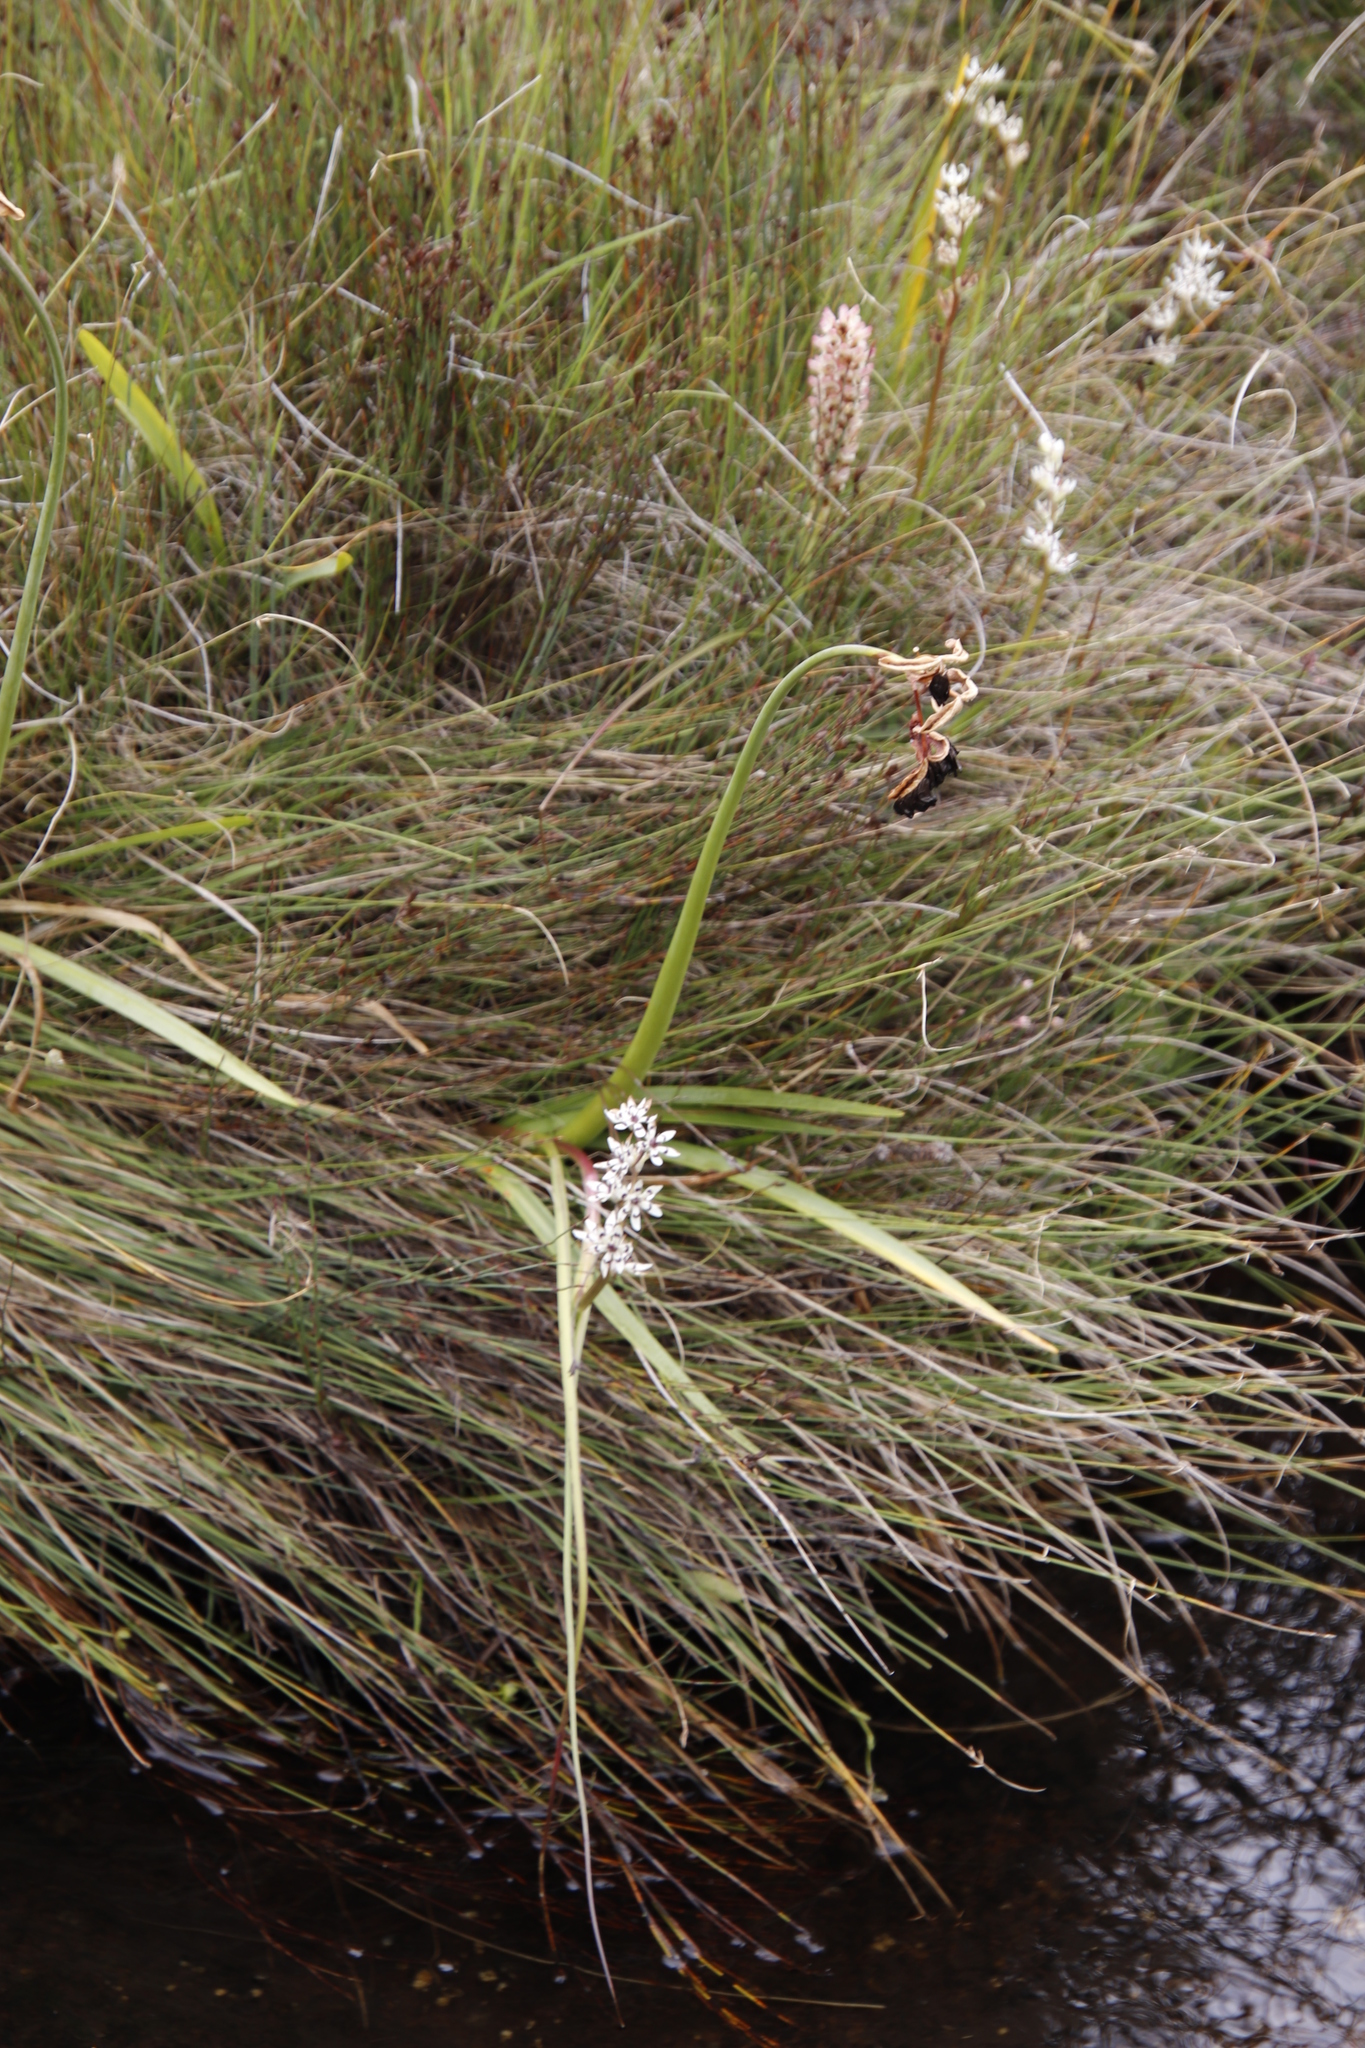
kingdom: Plantae
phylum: Tracheophyta
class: Liliopsida
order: Liliales
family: Colchicaceae
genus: Wurmbea
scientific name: Wurmbea elatior
